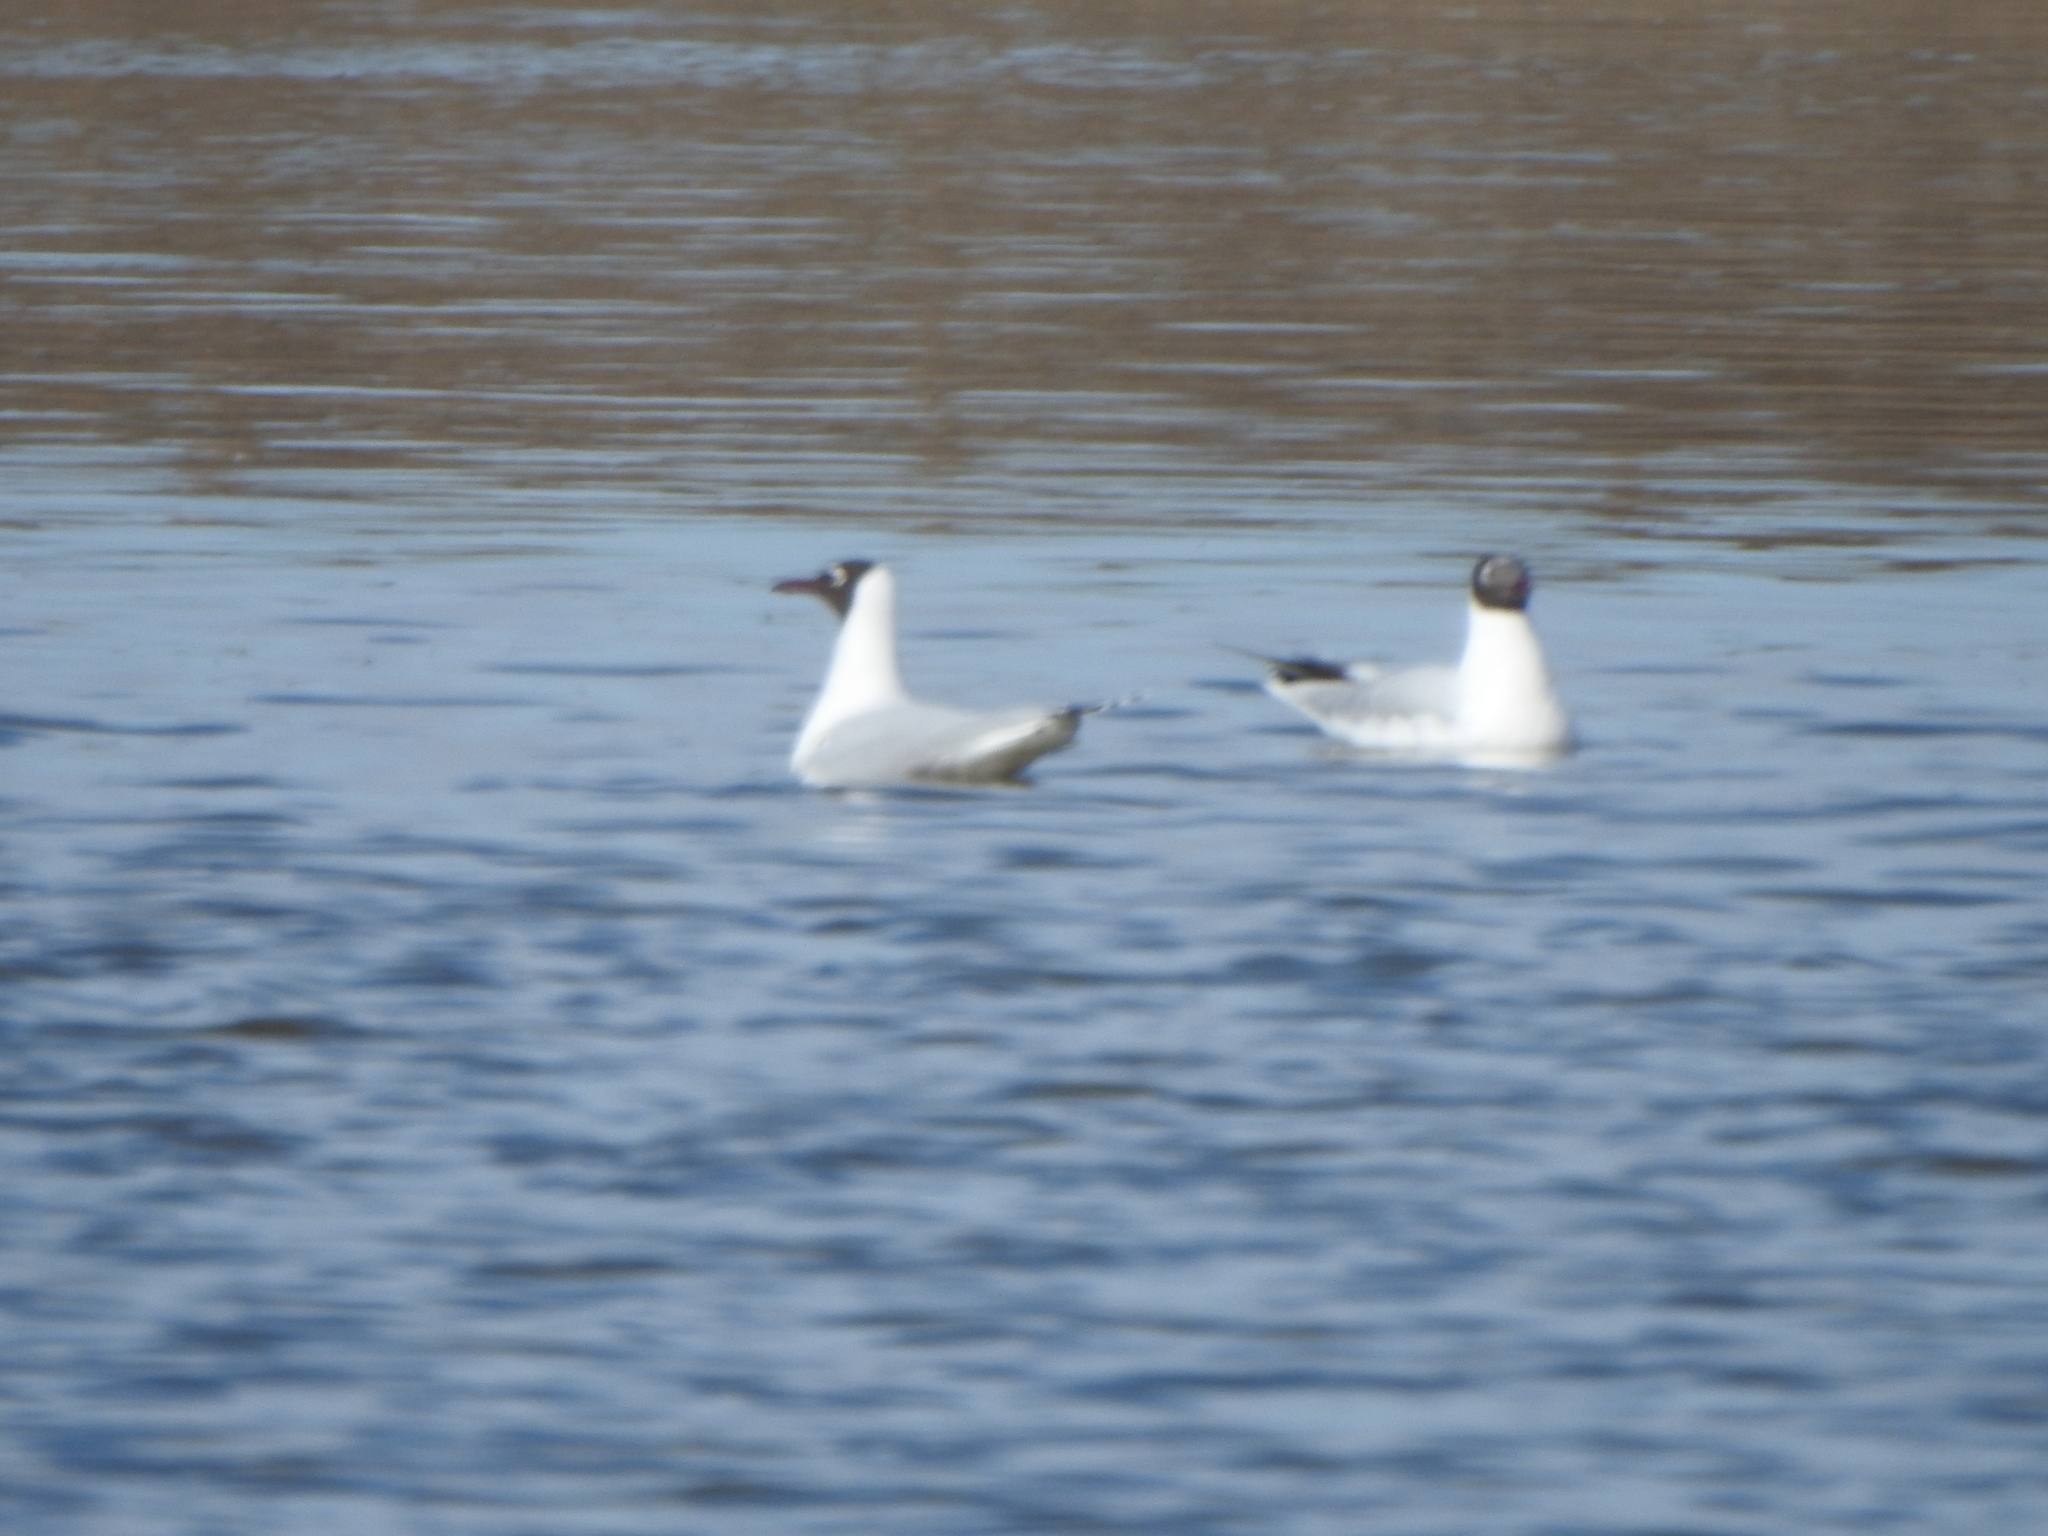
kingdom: Animalia
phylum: Chordata
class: Aves
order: Charadriiformes
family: Laridae
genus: Chroicocephalus
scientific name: Chroicocephalus maculipennis
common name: Brown-hooded gull
